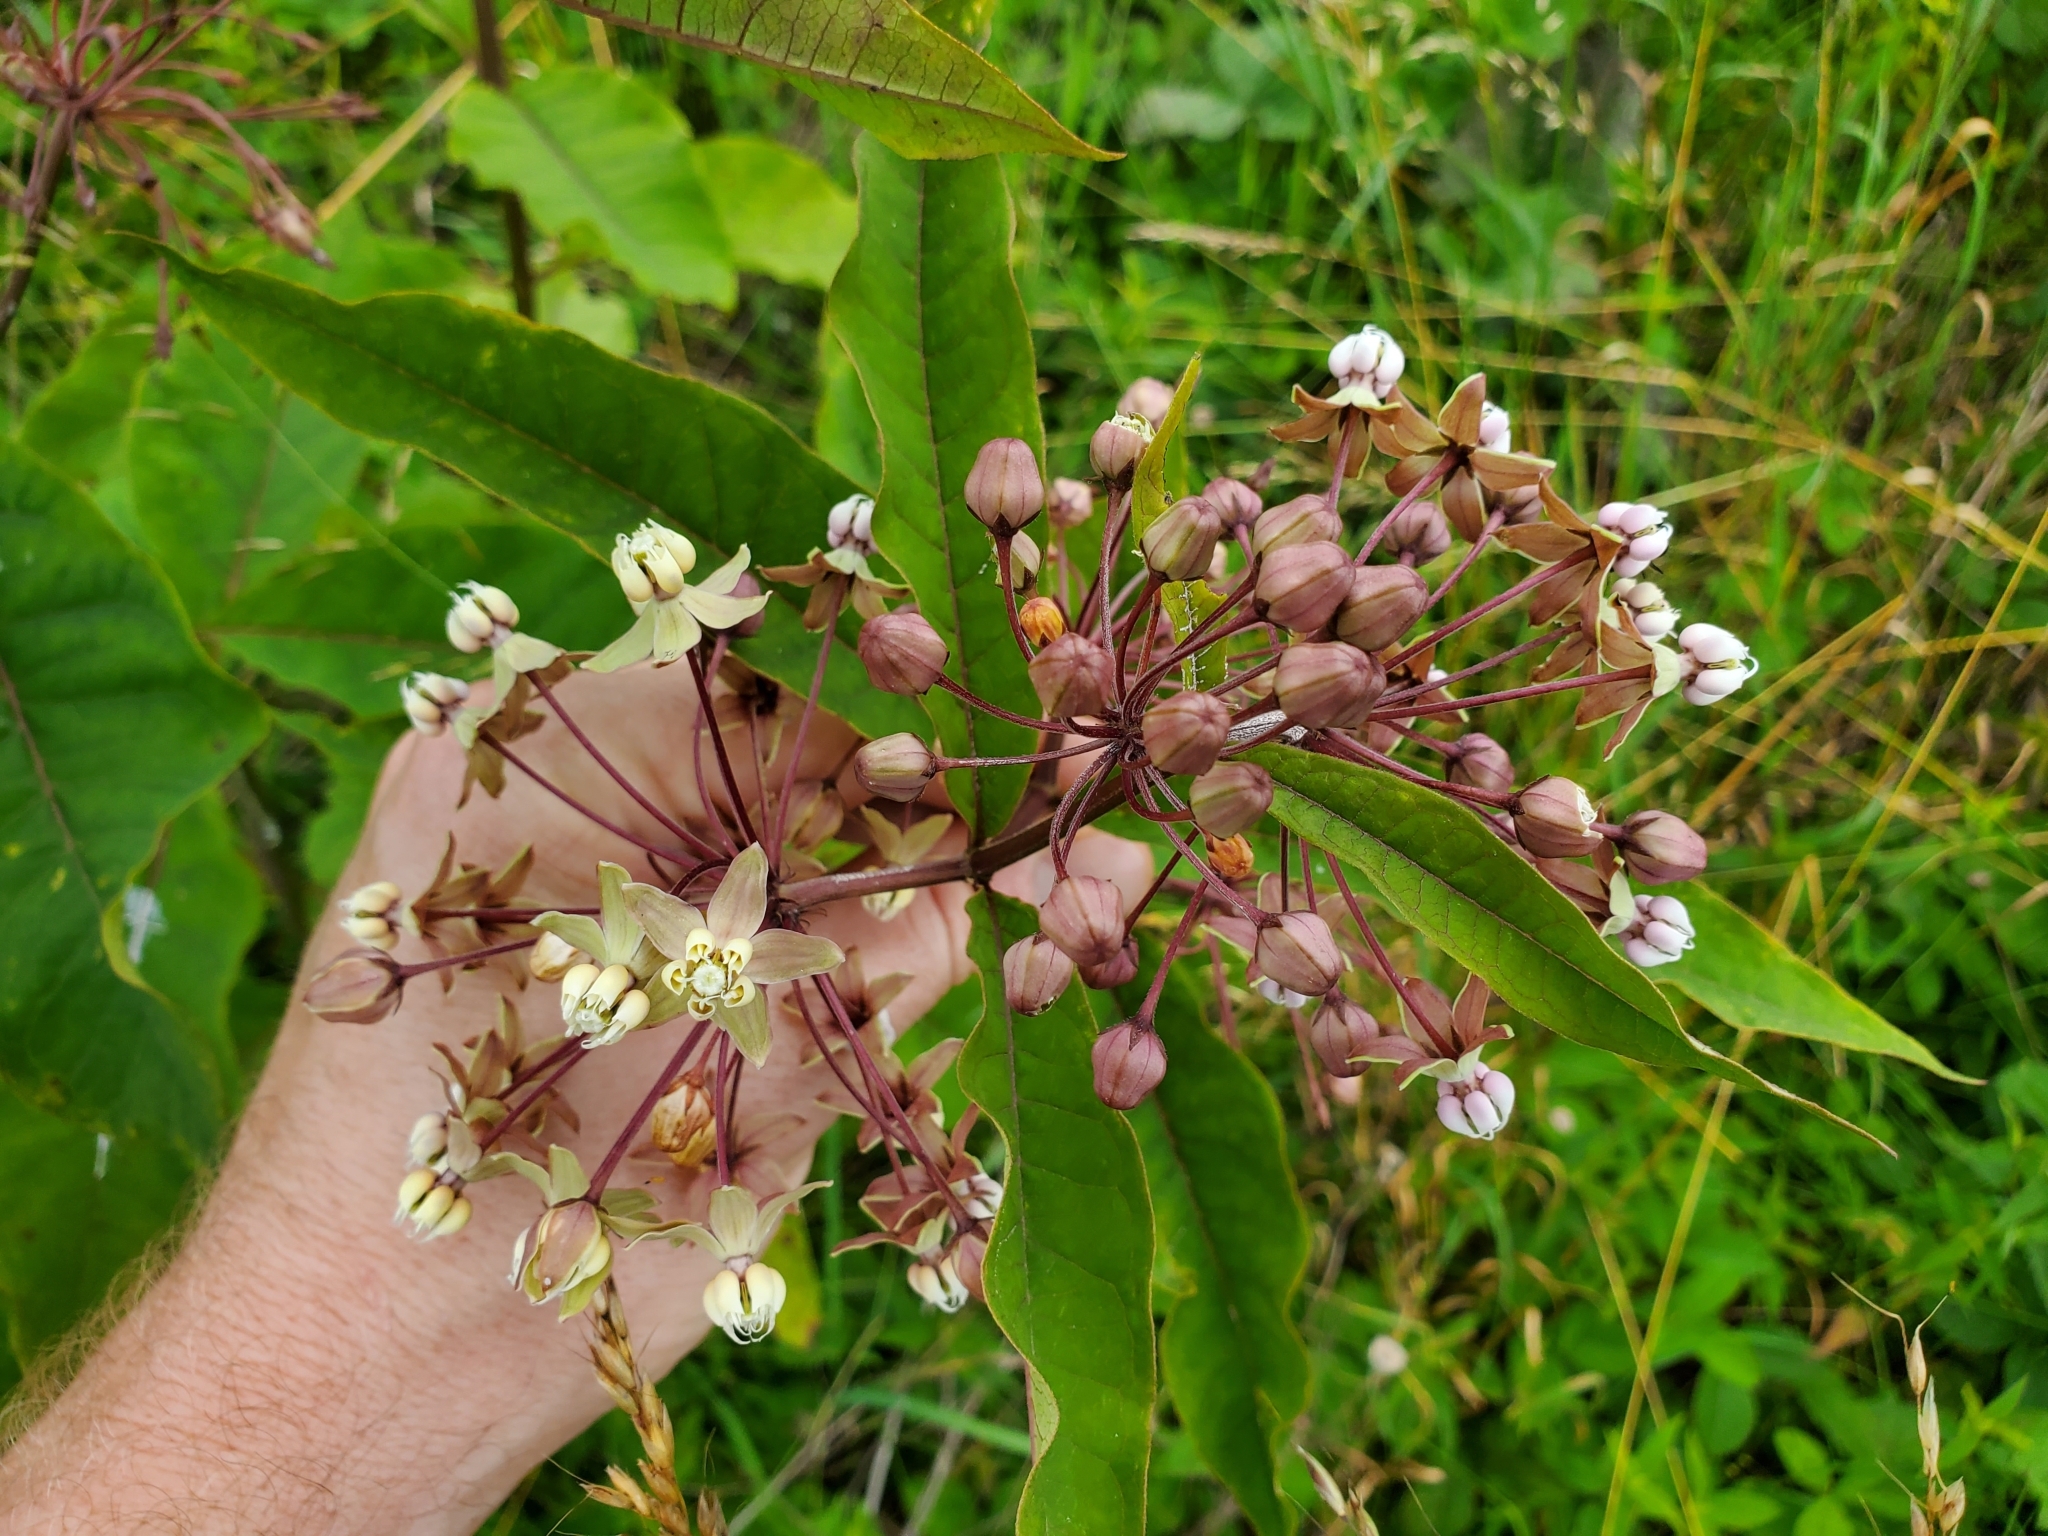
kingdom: Plantae
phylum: Tracheophyta
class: Magnoliopsida
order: Gentianales
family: Apocynaceae
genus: Asclepias
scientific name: Asclepias exaltata
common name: Poke milkweed
